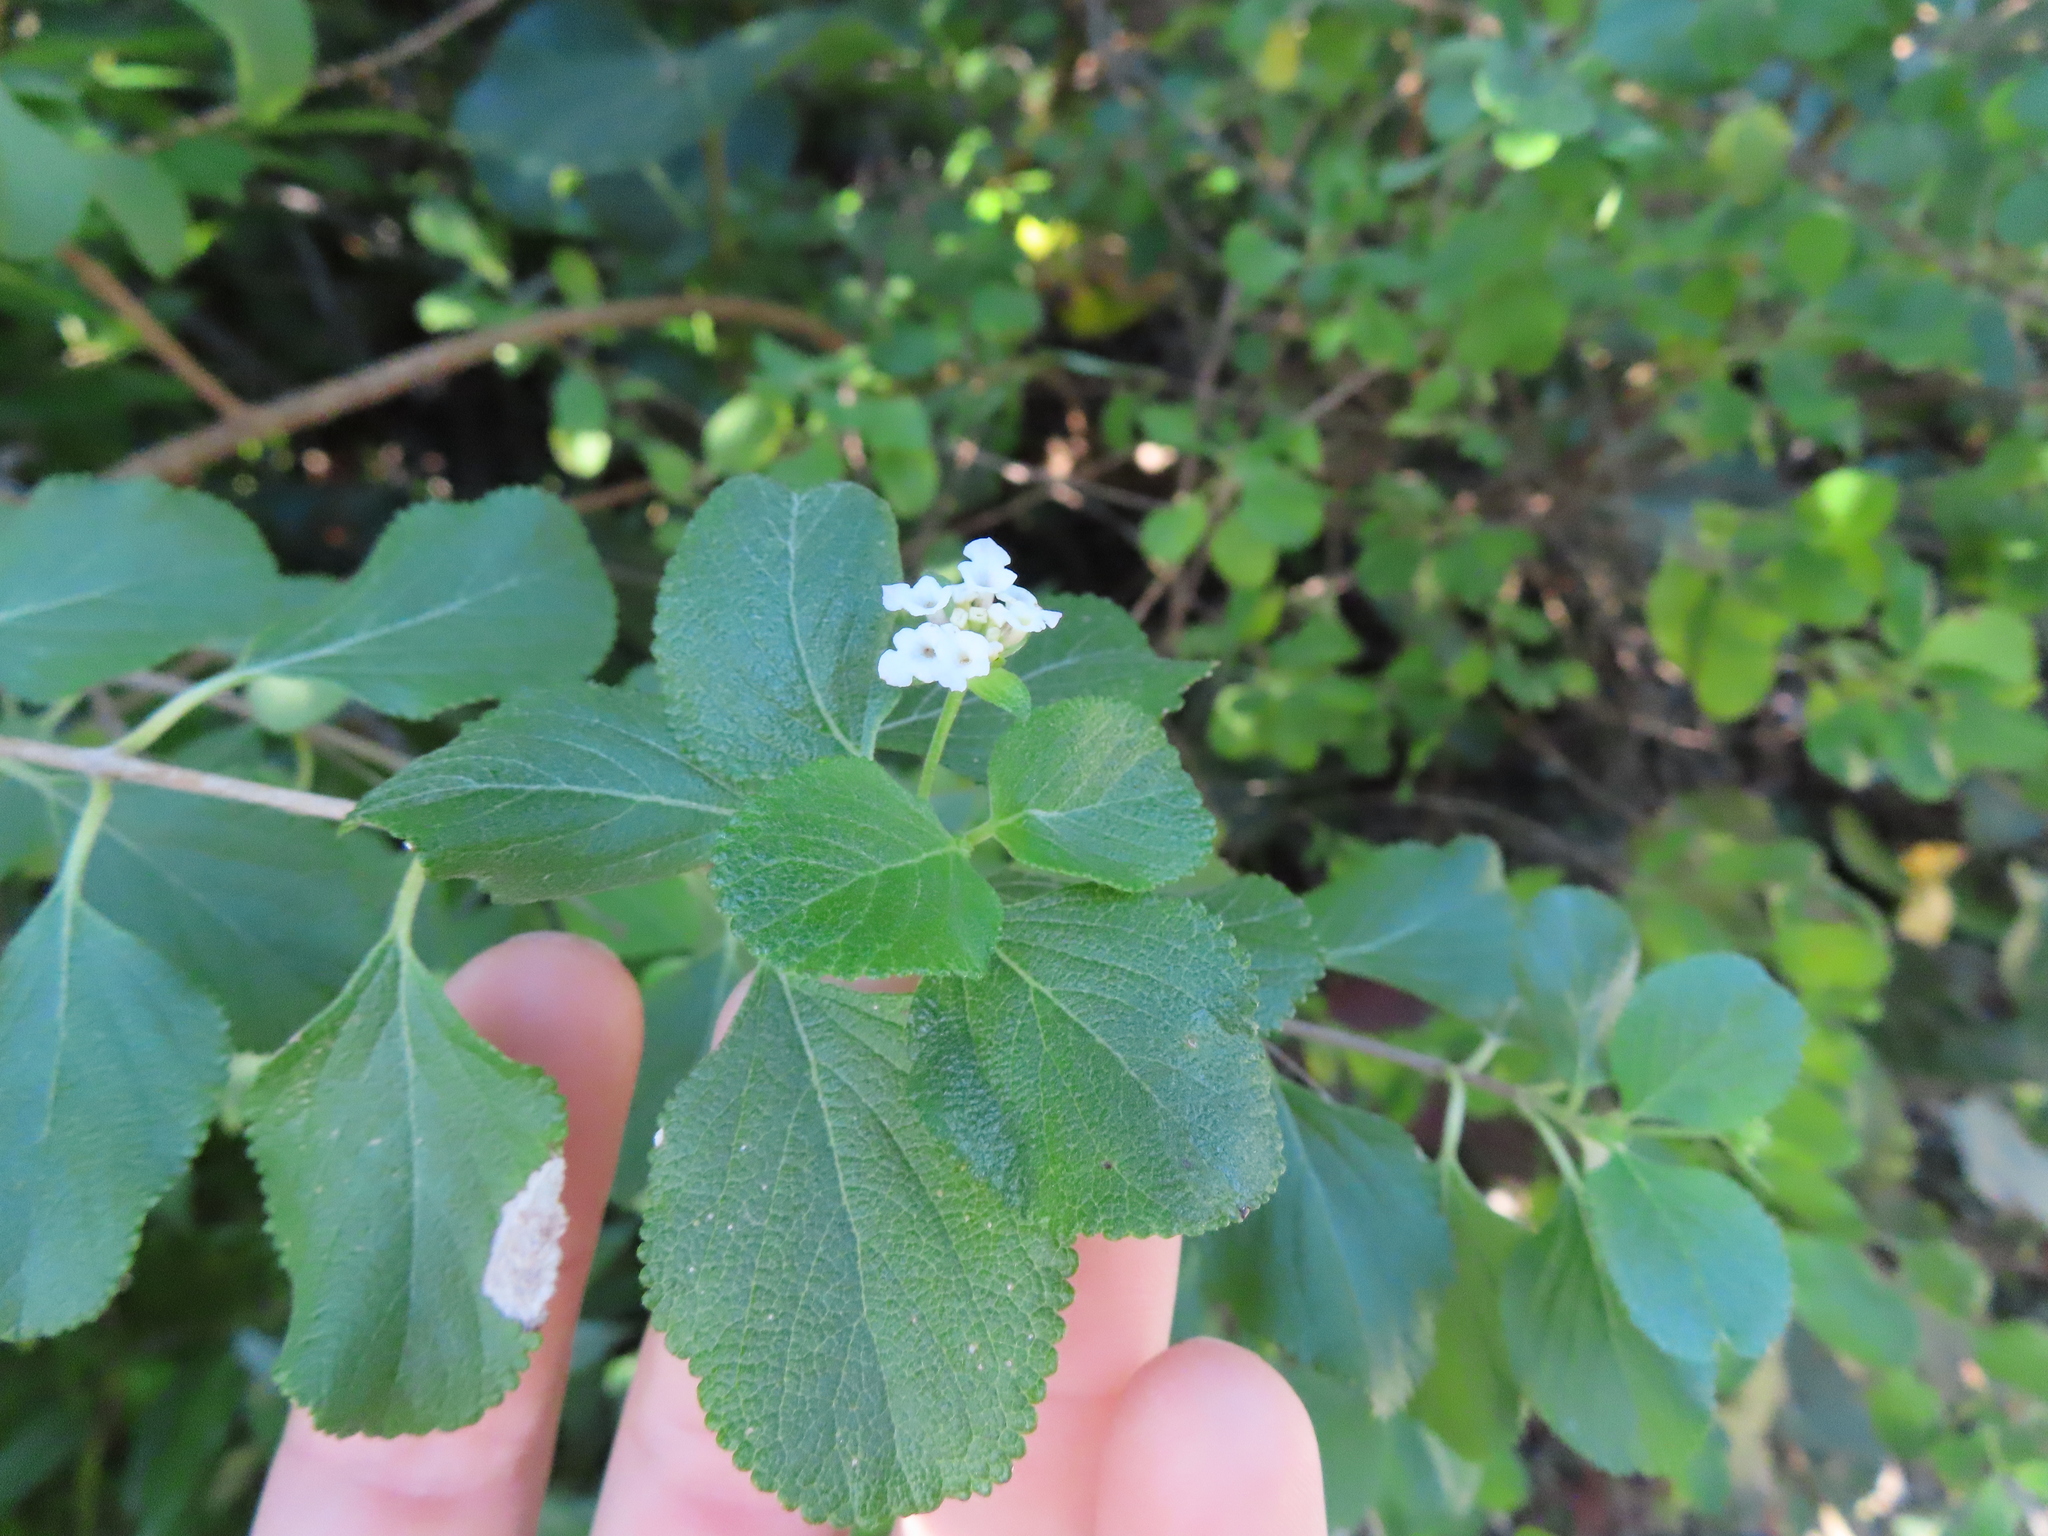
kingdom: Plantae
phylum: Tracheophyta
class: Magnoliopsida
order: Lamiales
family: Verbenaceae
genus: Lantana
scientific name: Lantana involucrata
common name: Black sage
